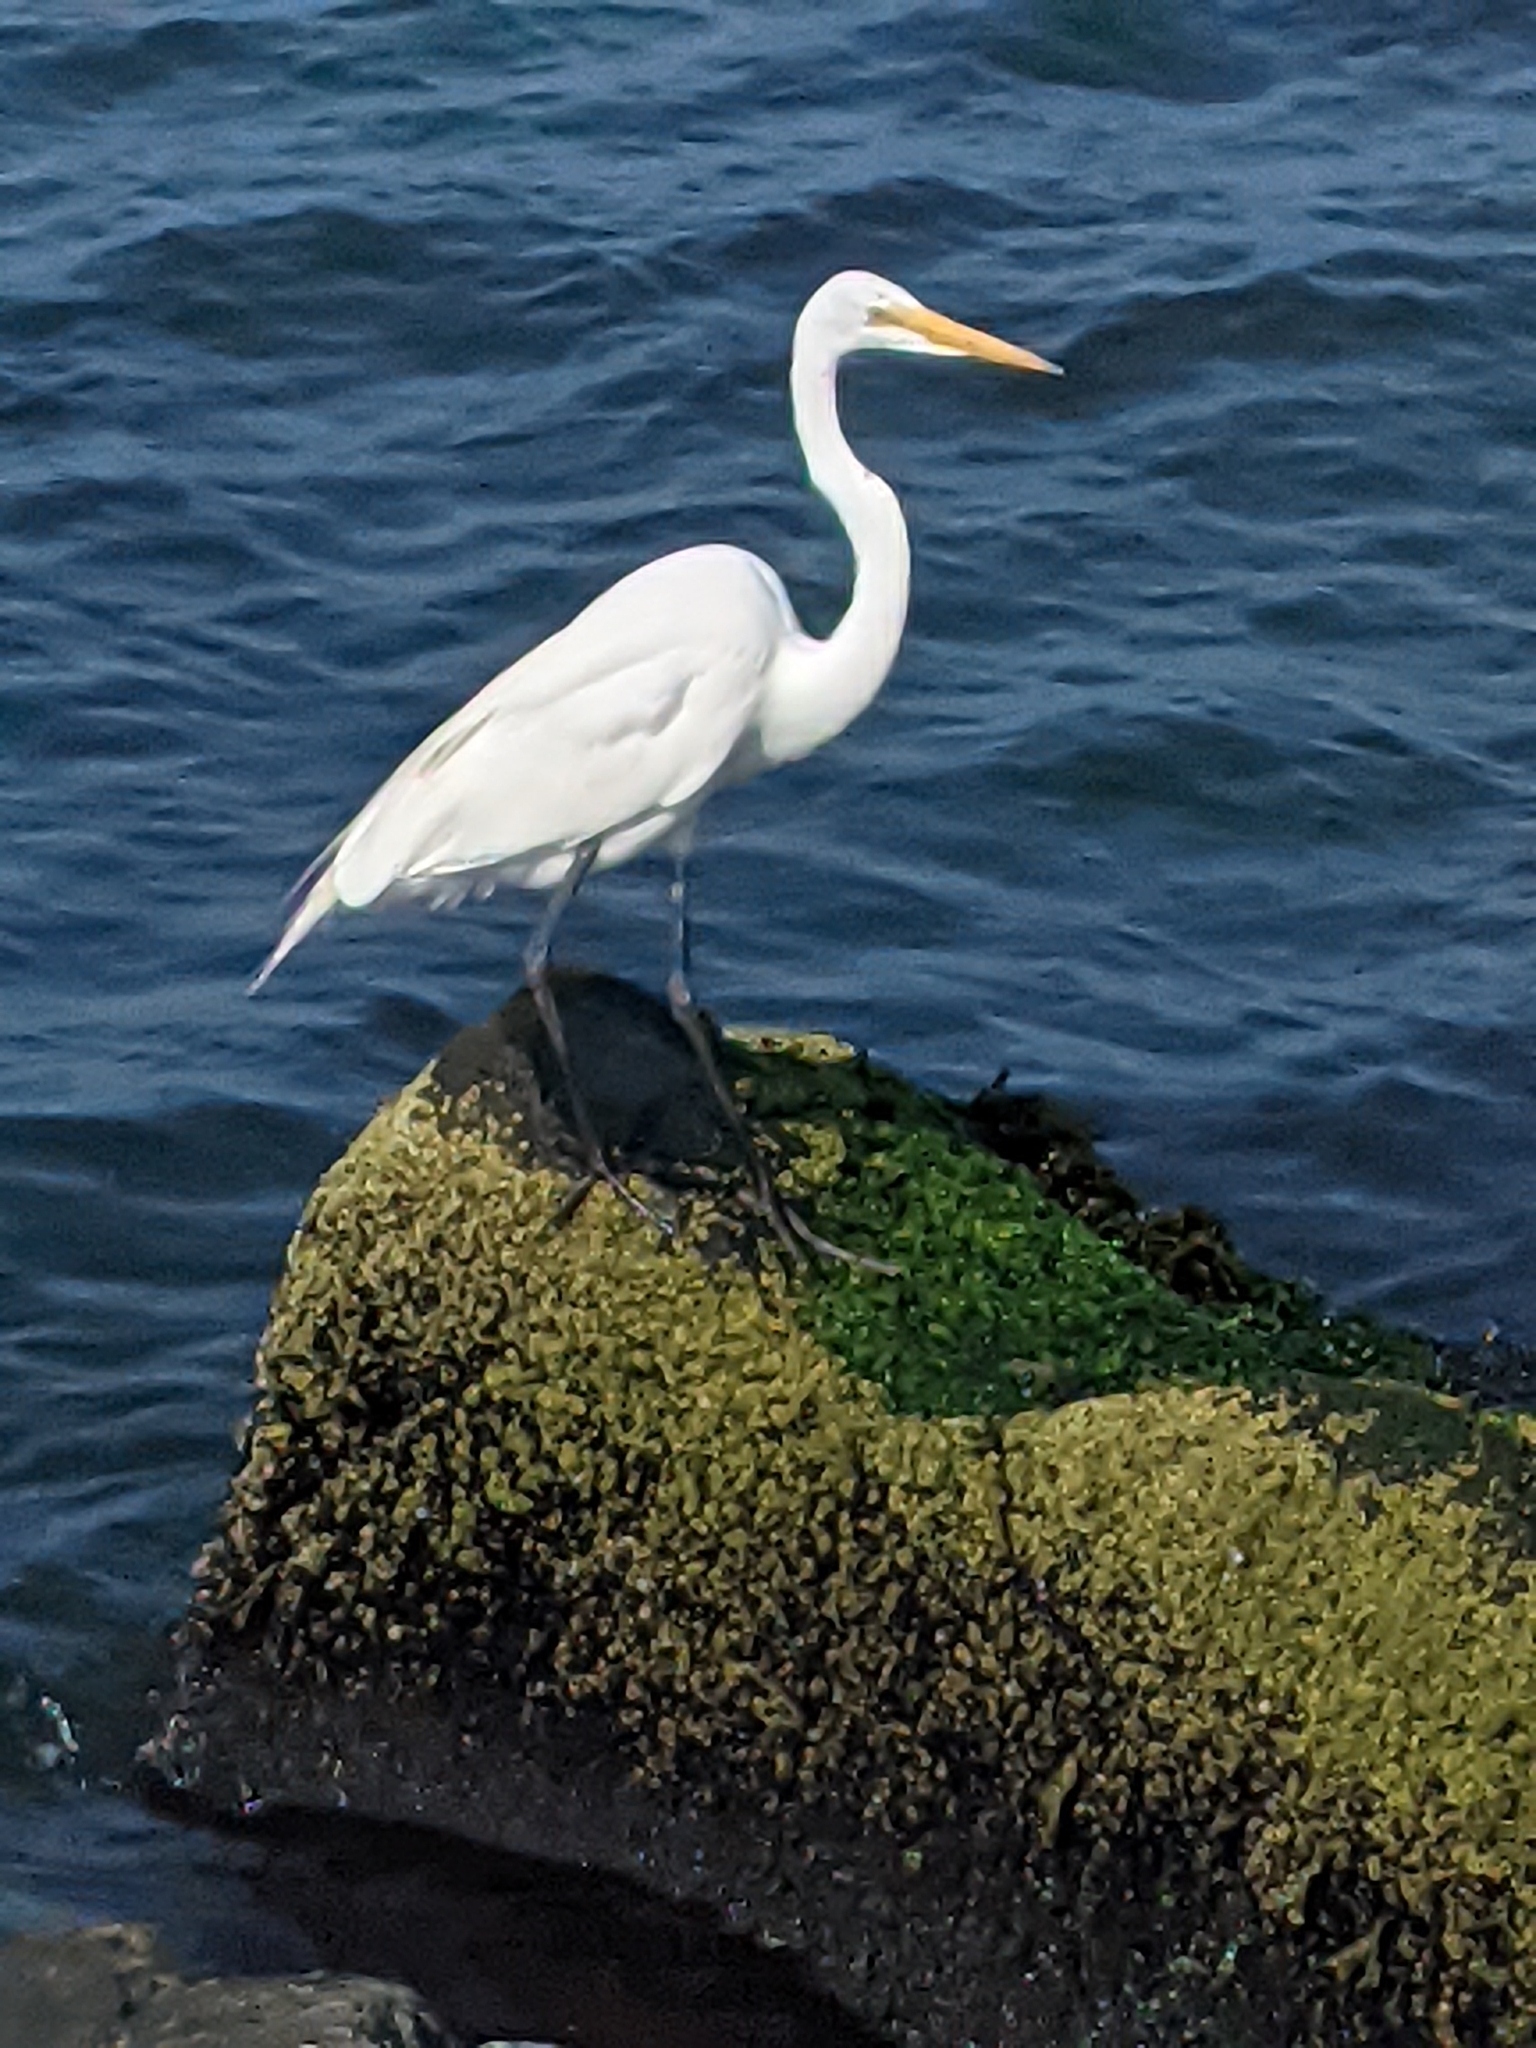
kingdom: Animalia
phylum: Chordata
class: Aves
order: Pelecaniformes
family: Ardeidae
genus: Ardea
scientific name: Ardea alba
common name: Great egret
